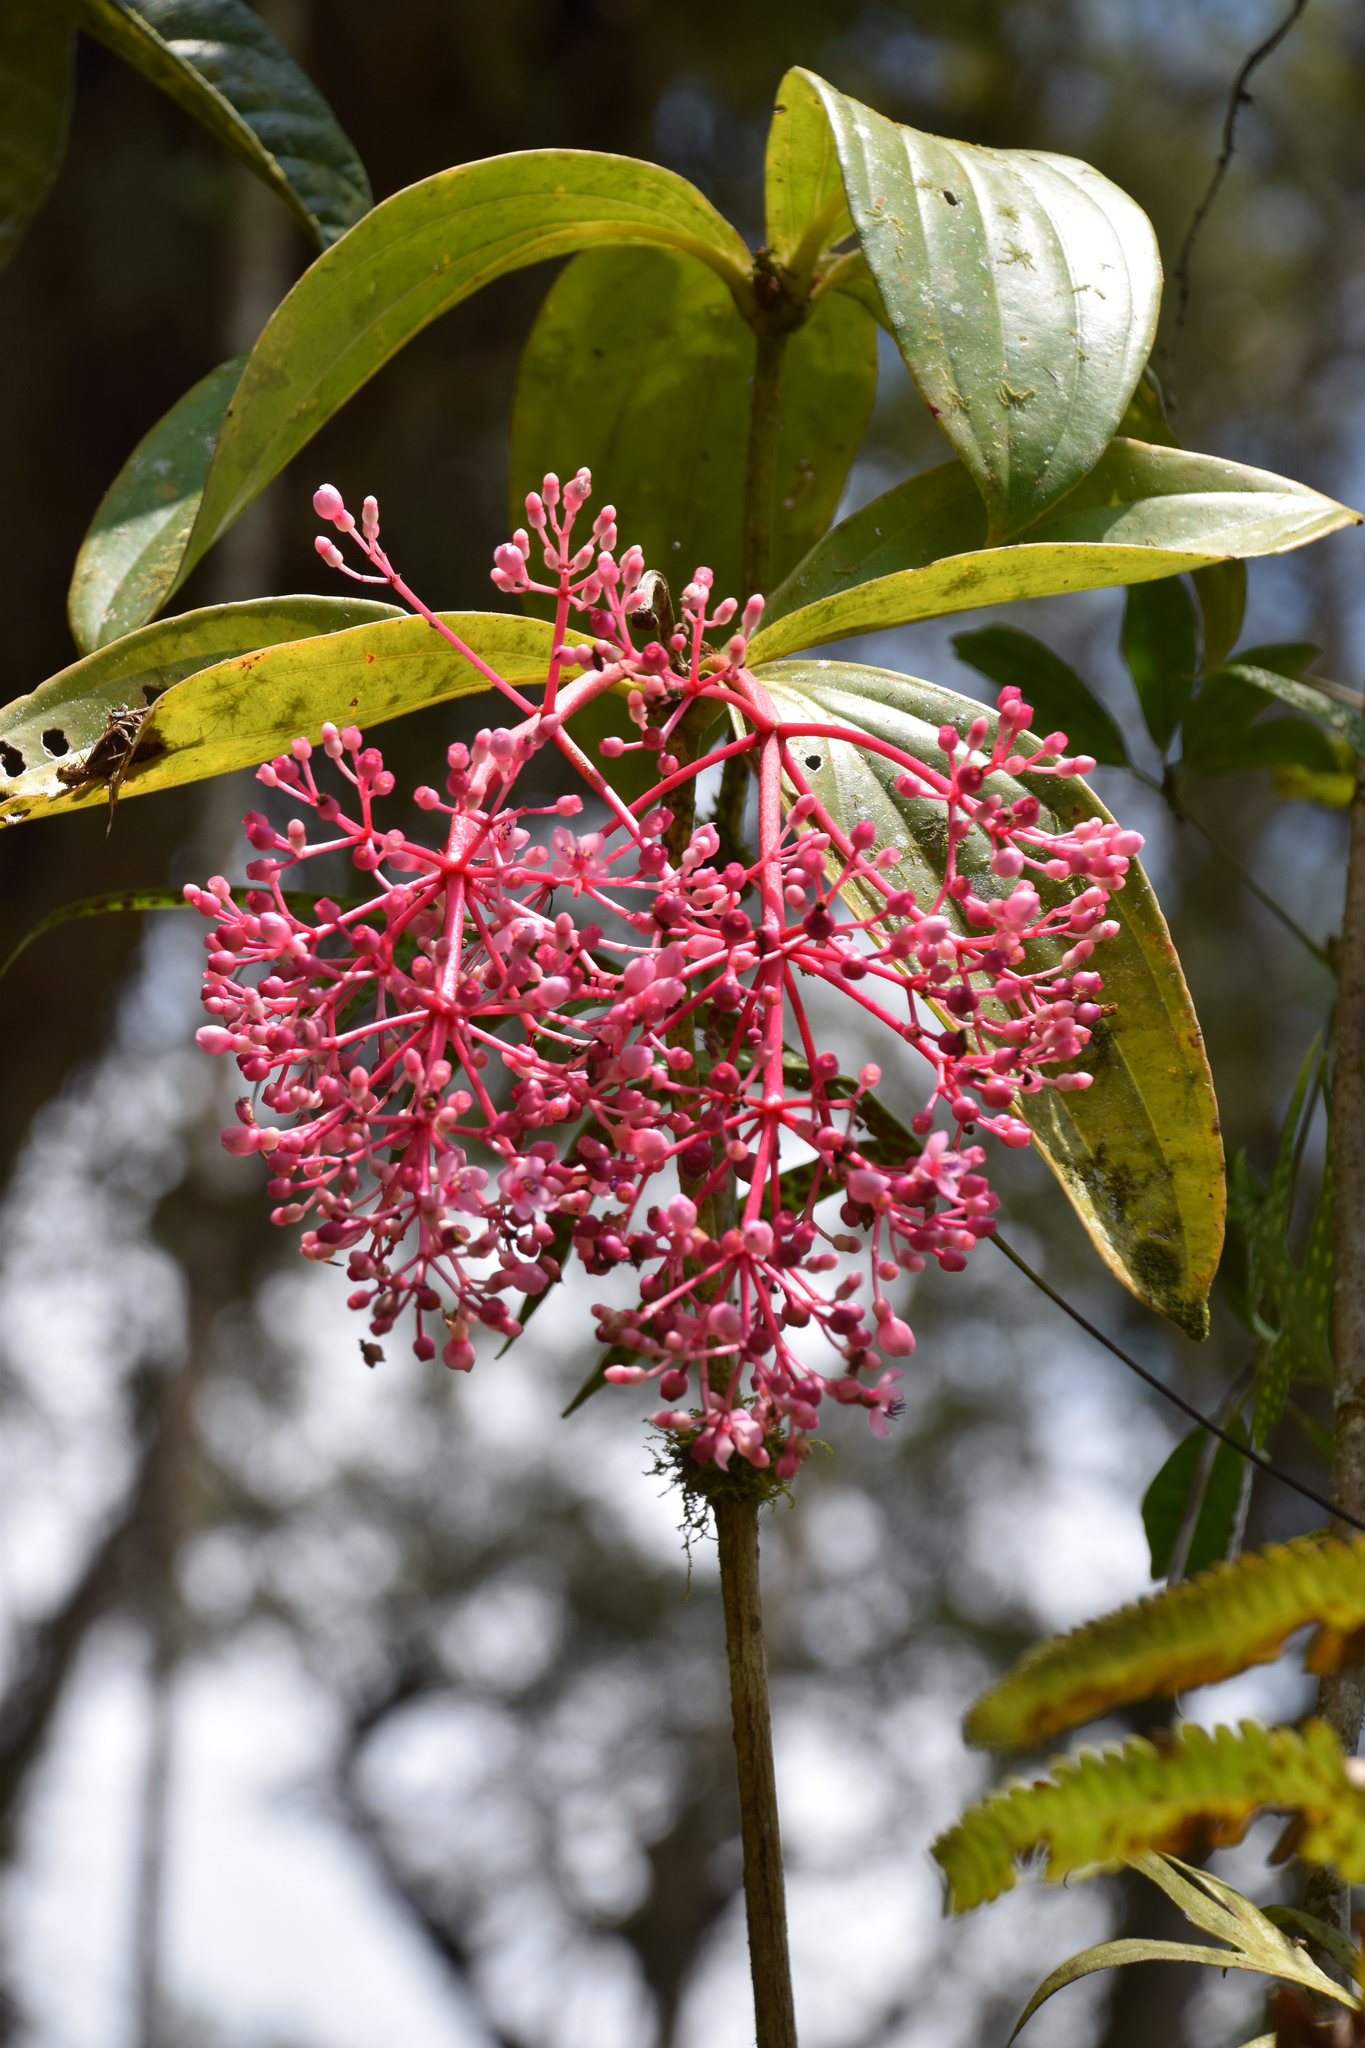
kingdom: Plantae
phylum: Tracheophyta
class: Magnoliopsida
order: Myrtales
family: Melastomataceae
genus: Medinilla
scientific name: Medinilla speciosa
